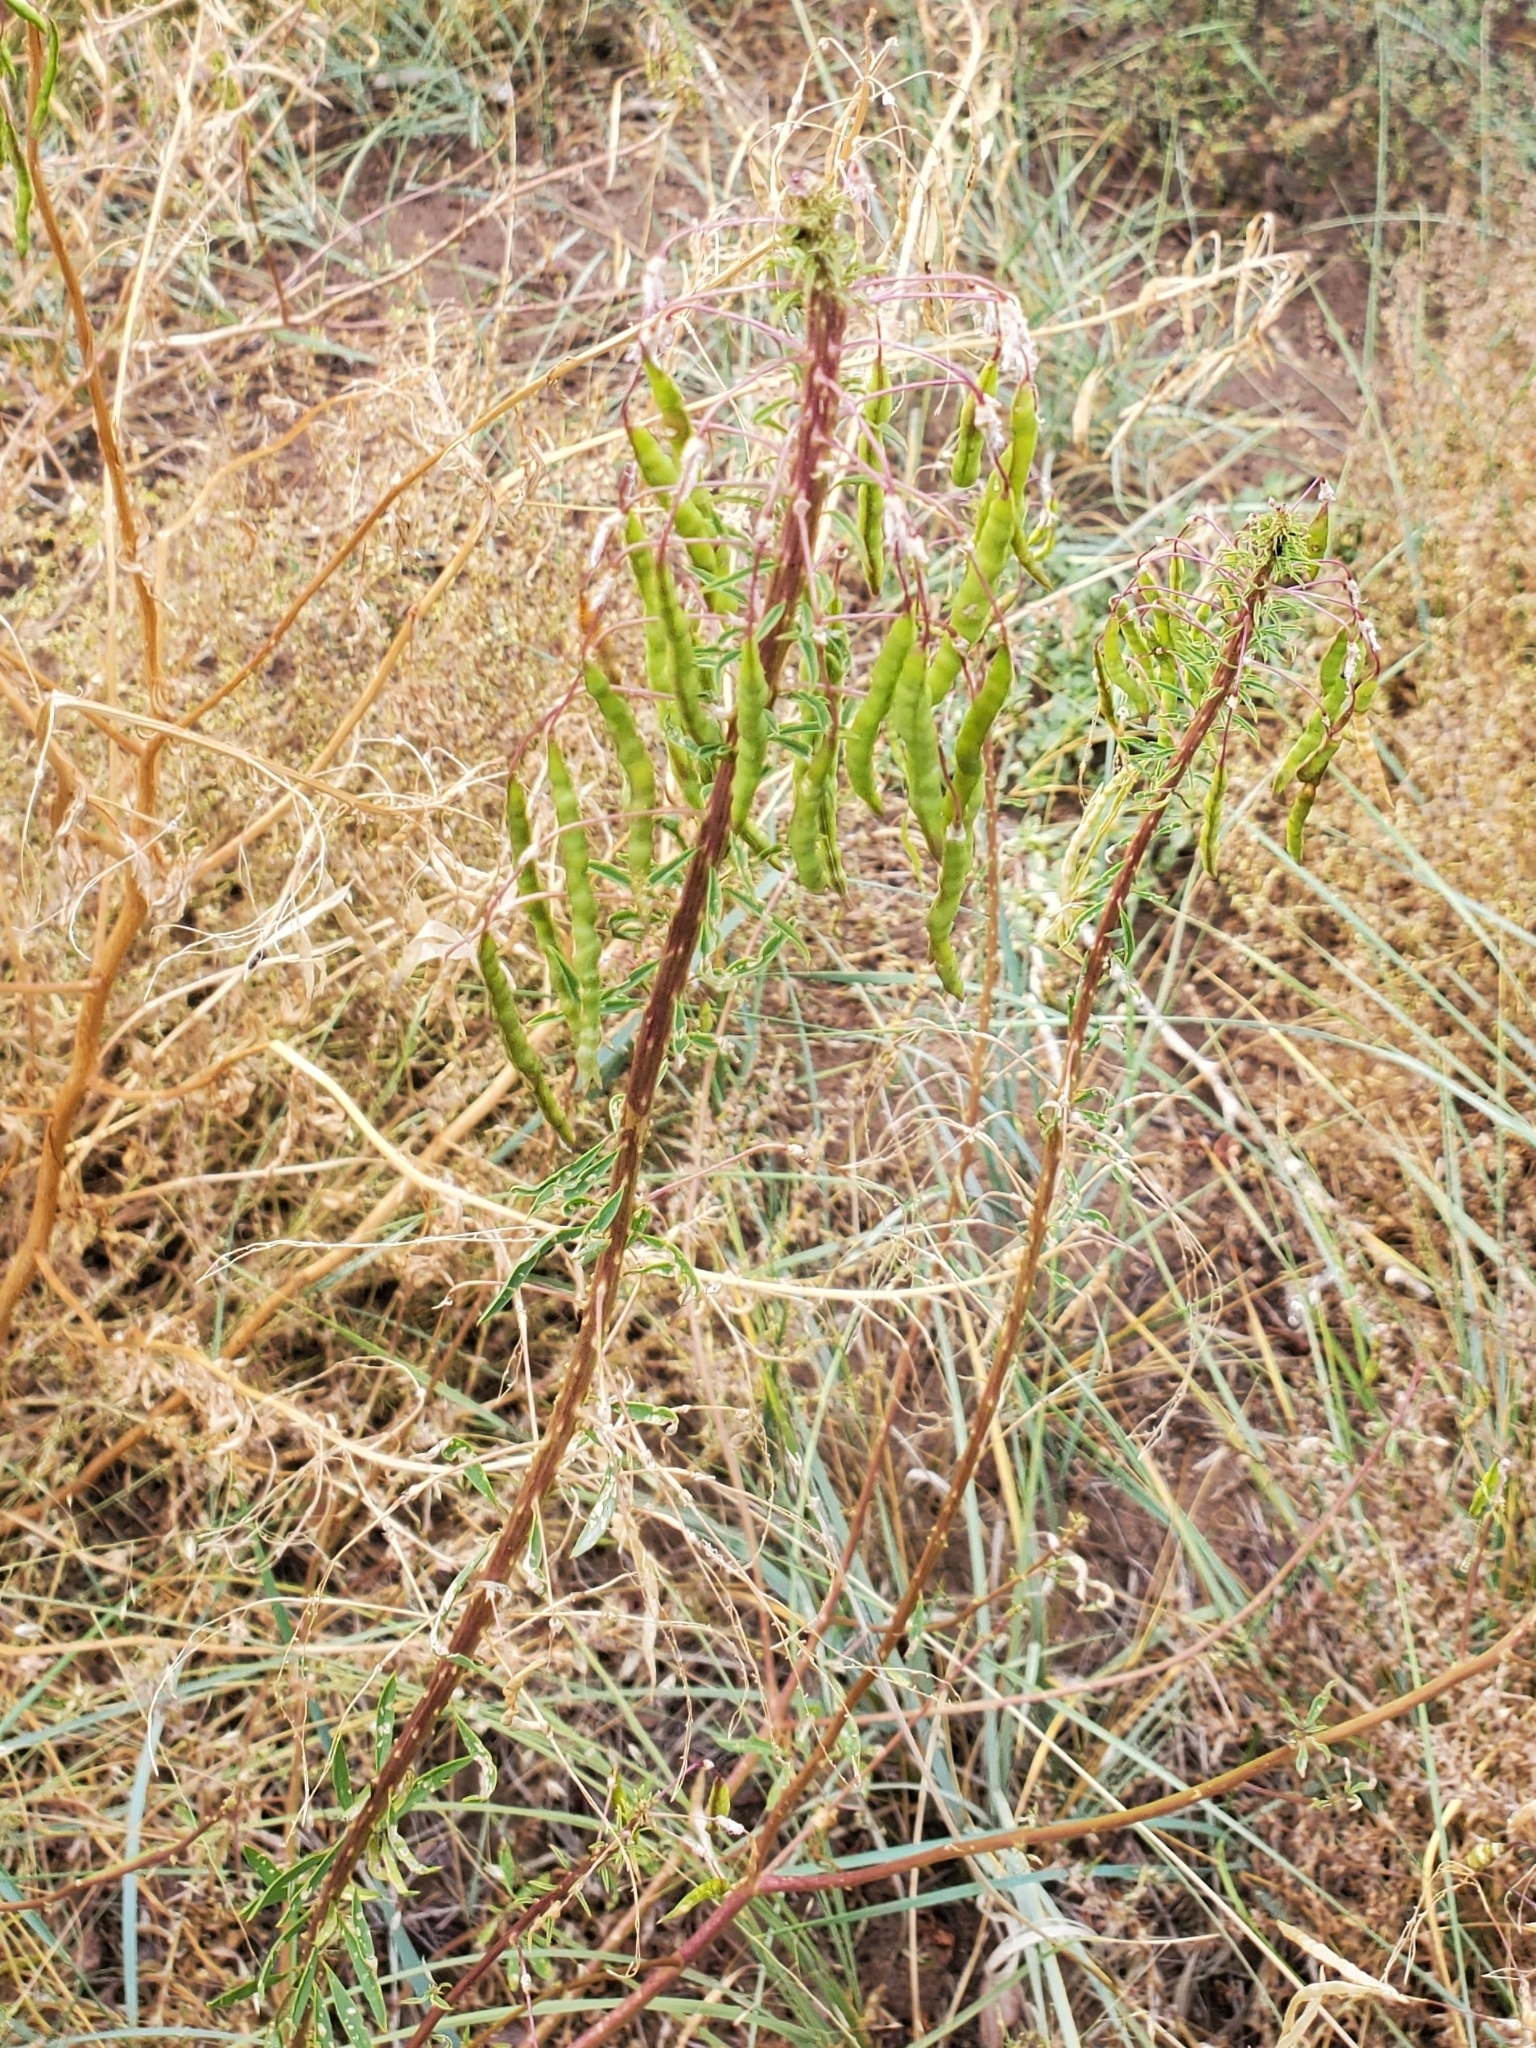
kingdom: Plantae
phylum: Tracheophyta
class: Magnoliopsida
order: Brassicales
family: Cleomaceae
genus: Cleomella
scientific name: Cleomella serrulata
